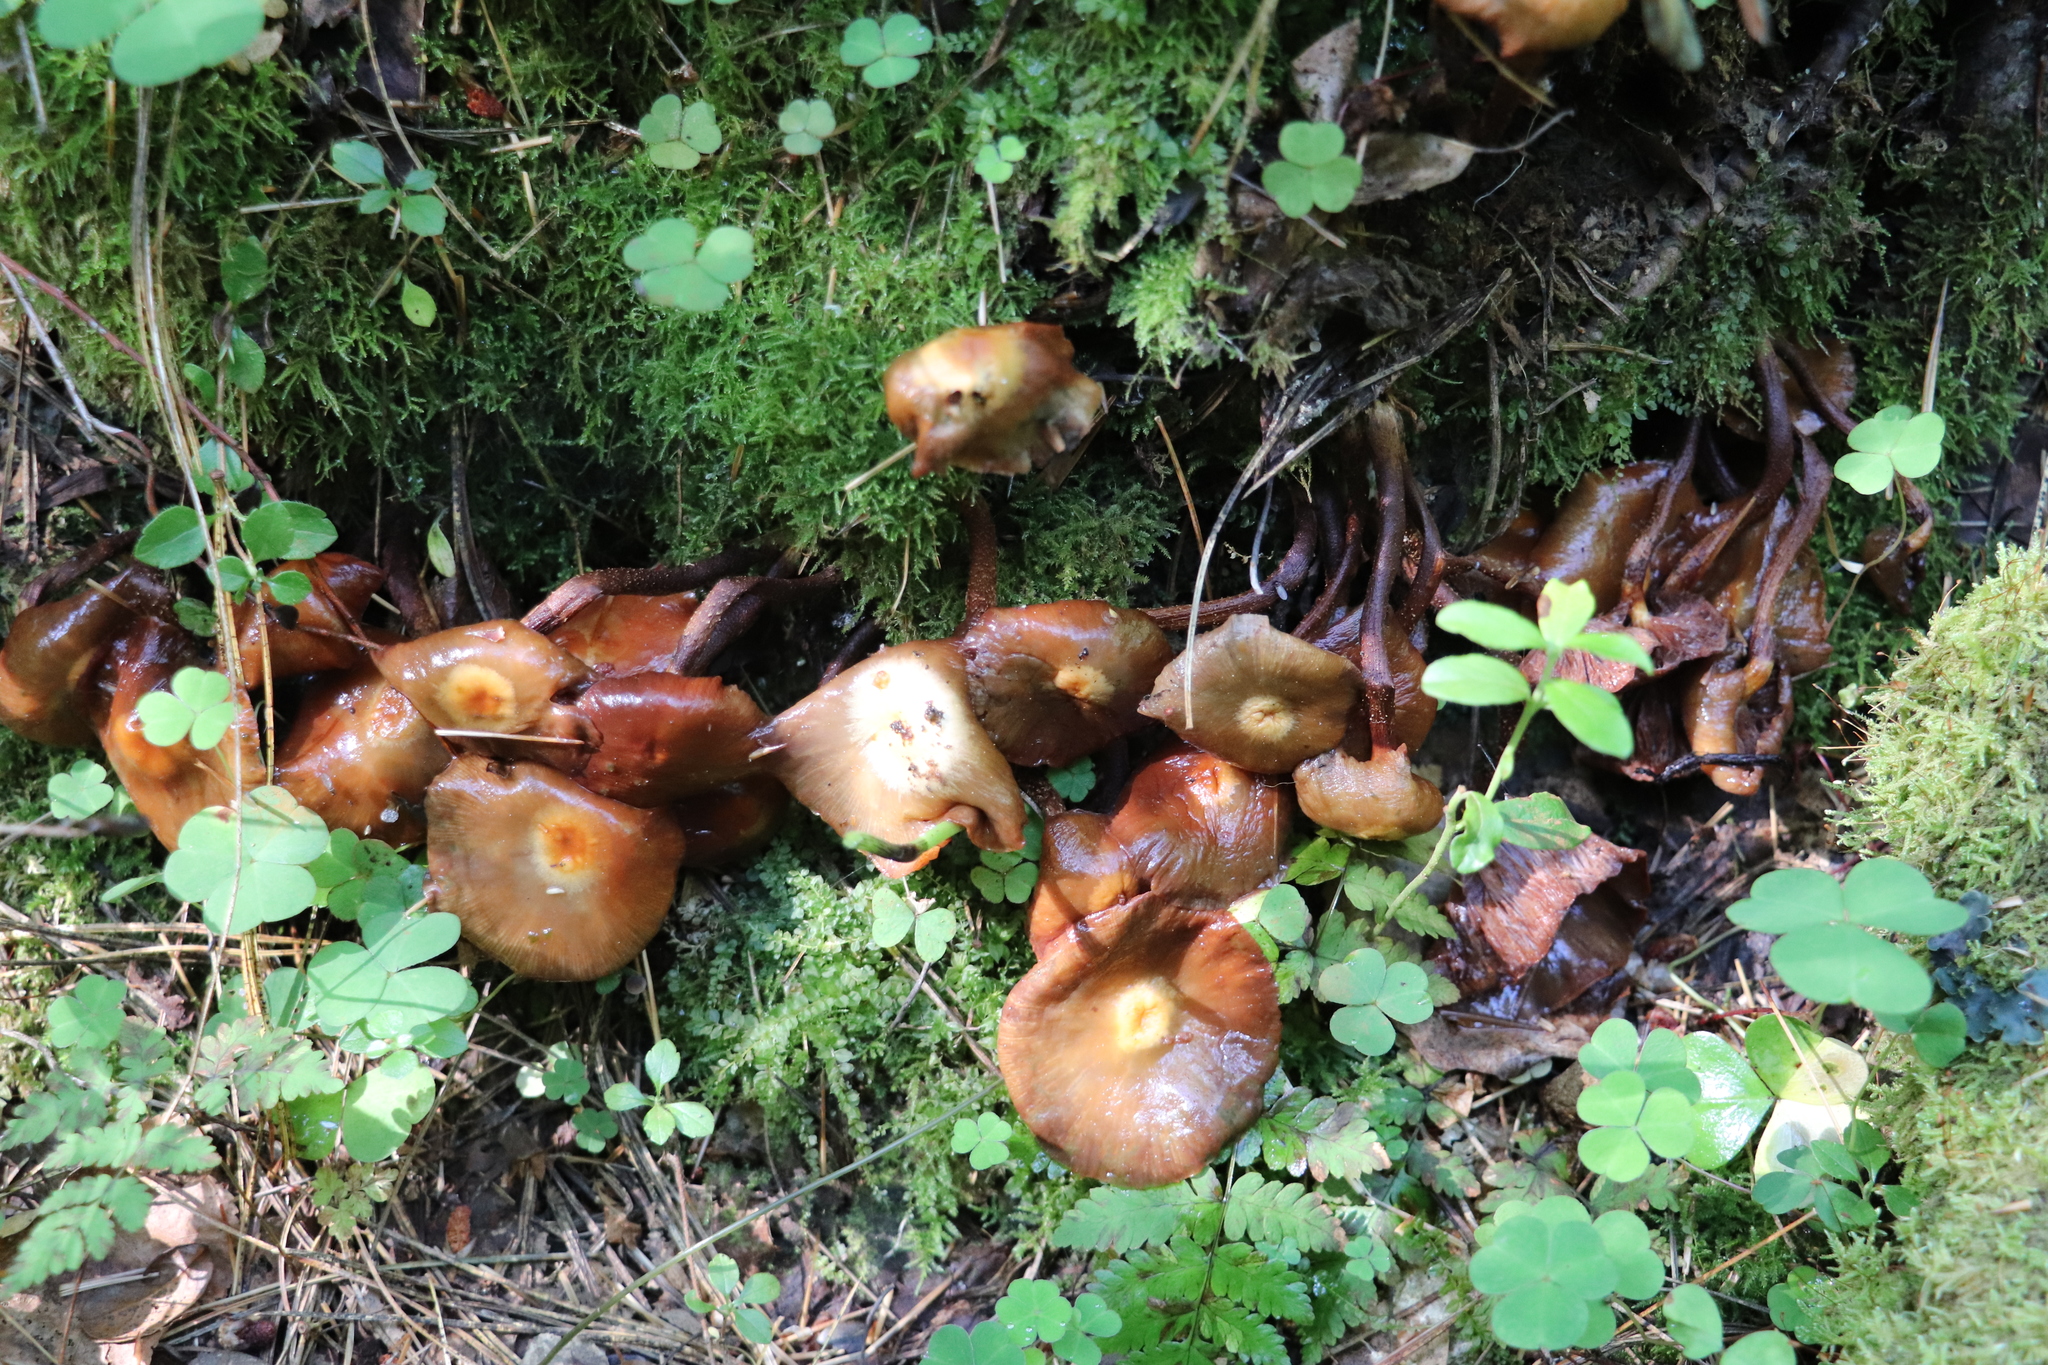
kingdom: Fungi
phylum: Basidiomycota
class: Agaricomycetes
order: Agaricales
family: Strophariaceae
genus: Kuehneromyces
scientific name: Kuehneromyces mutabilis
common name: Sheathed woodtuft
